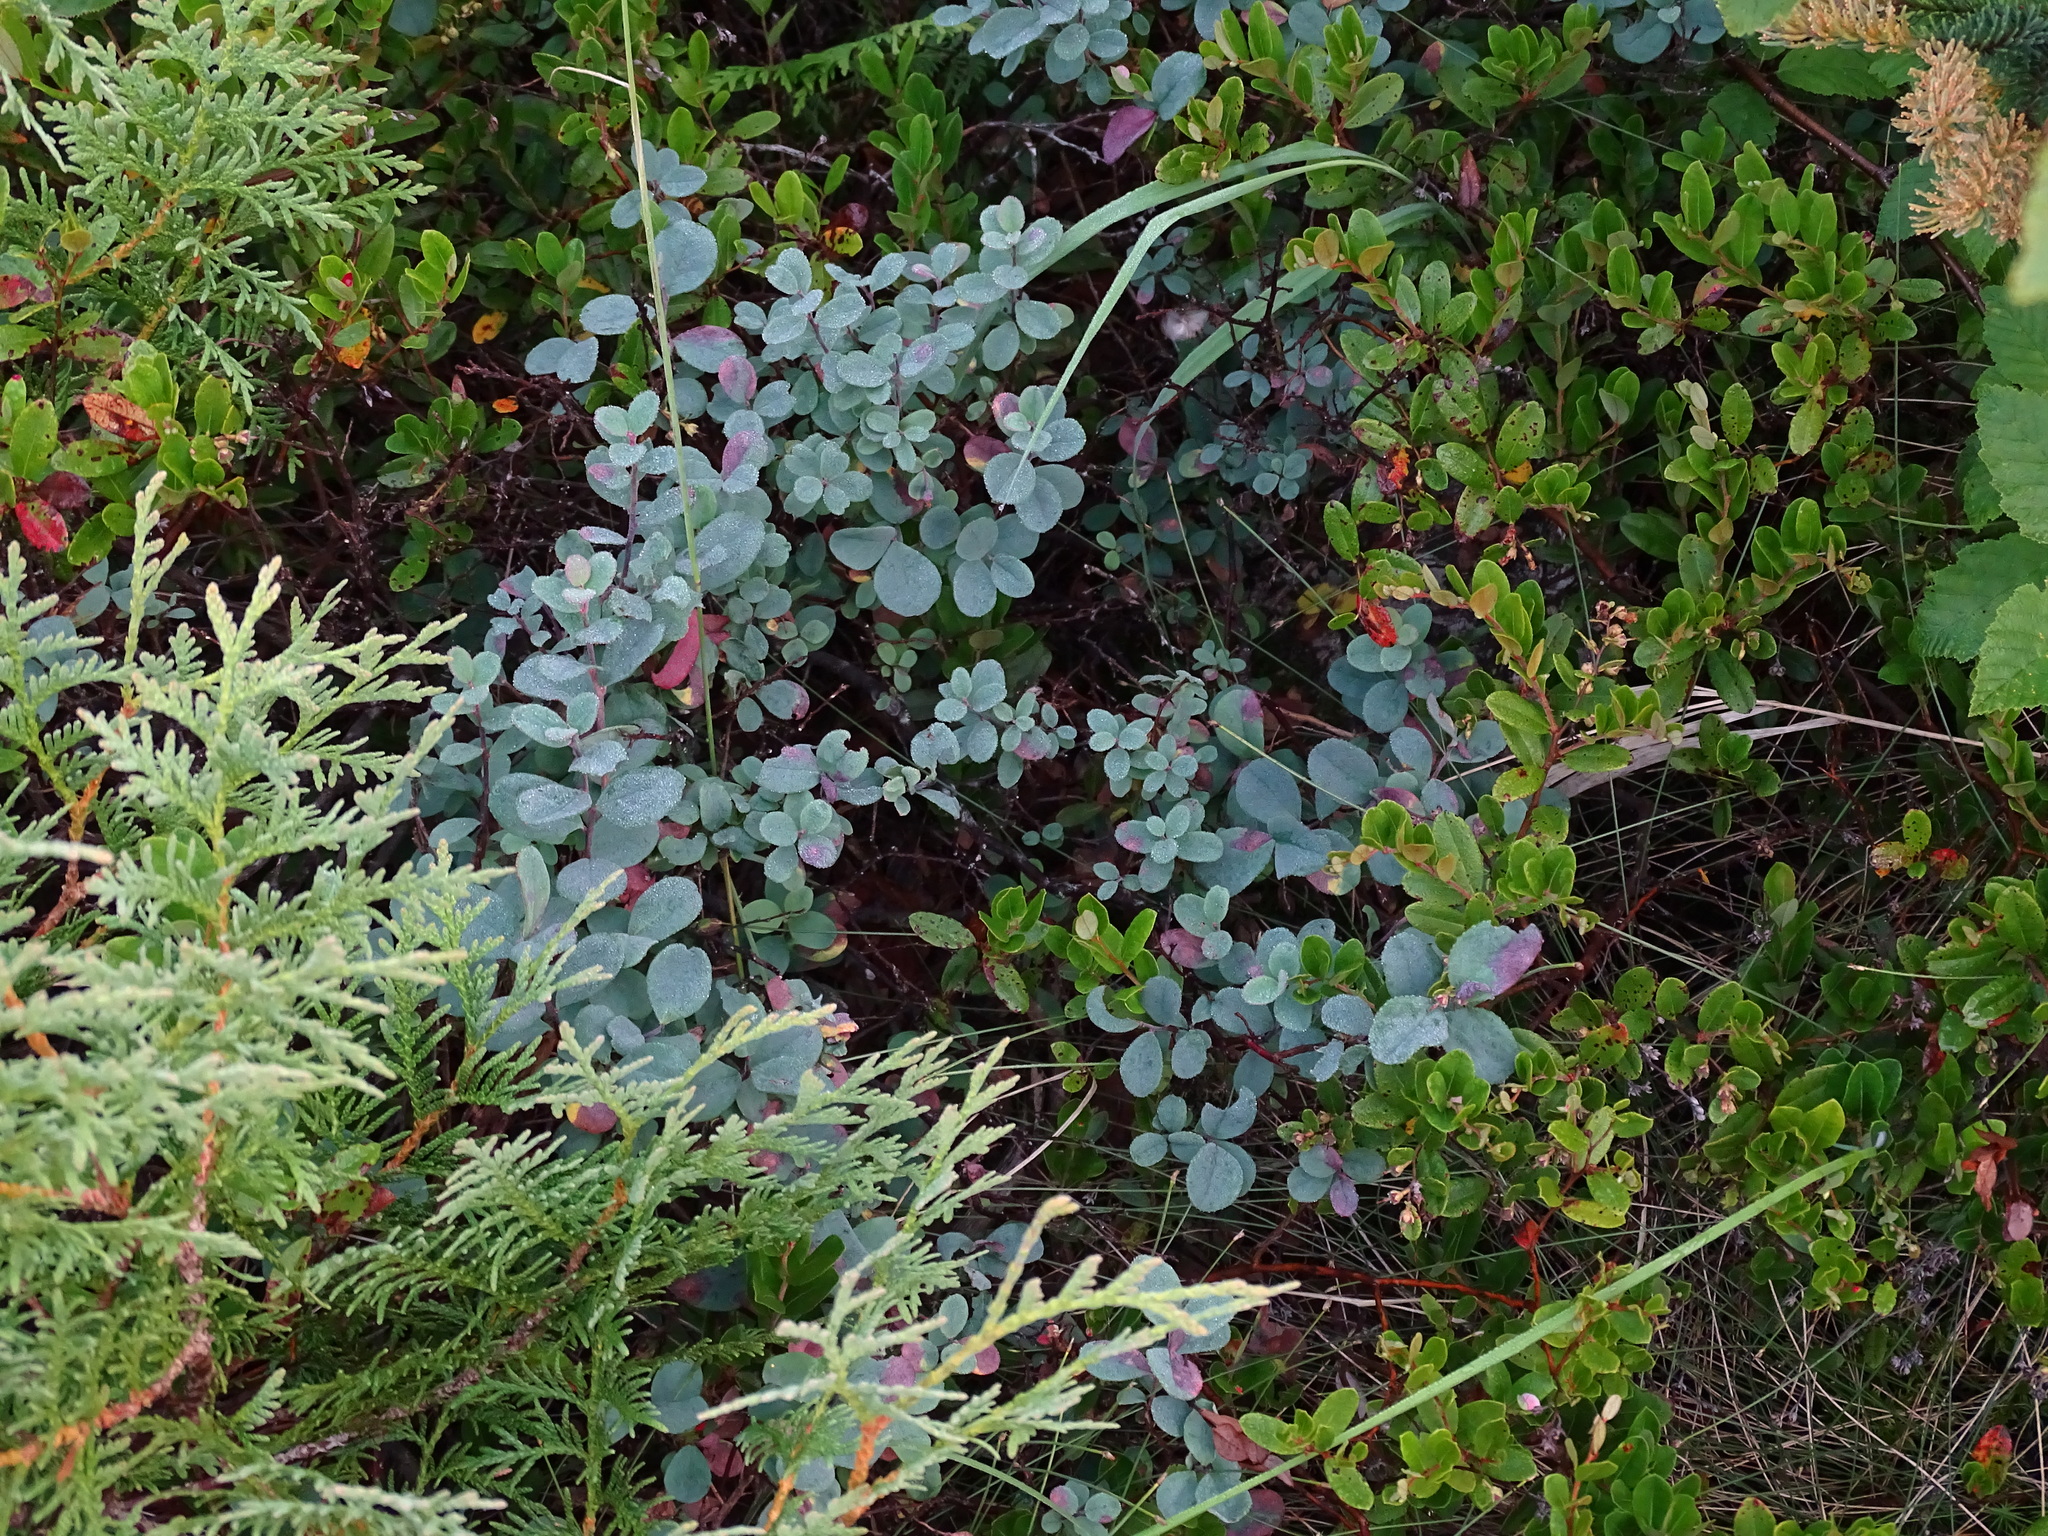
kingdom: Plantae
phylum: Tracheophyta
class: Magnoliopsida
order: Ericales
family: Ericaceae
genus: Vaccinium
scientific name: Vaccinium uliginosum
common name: Bog bilberry
